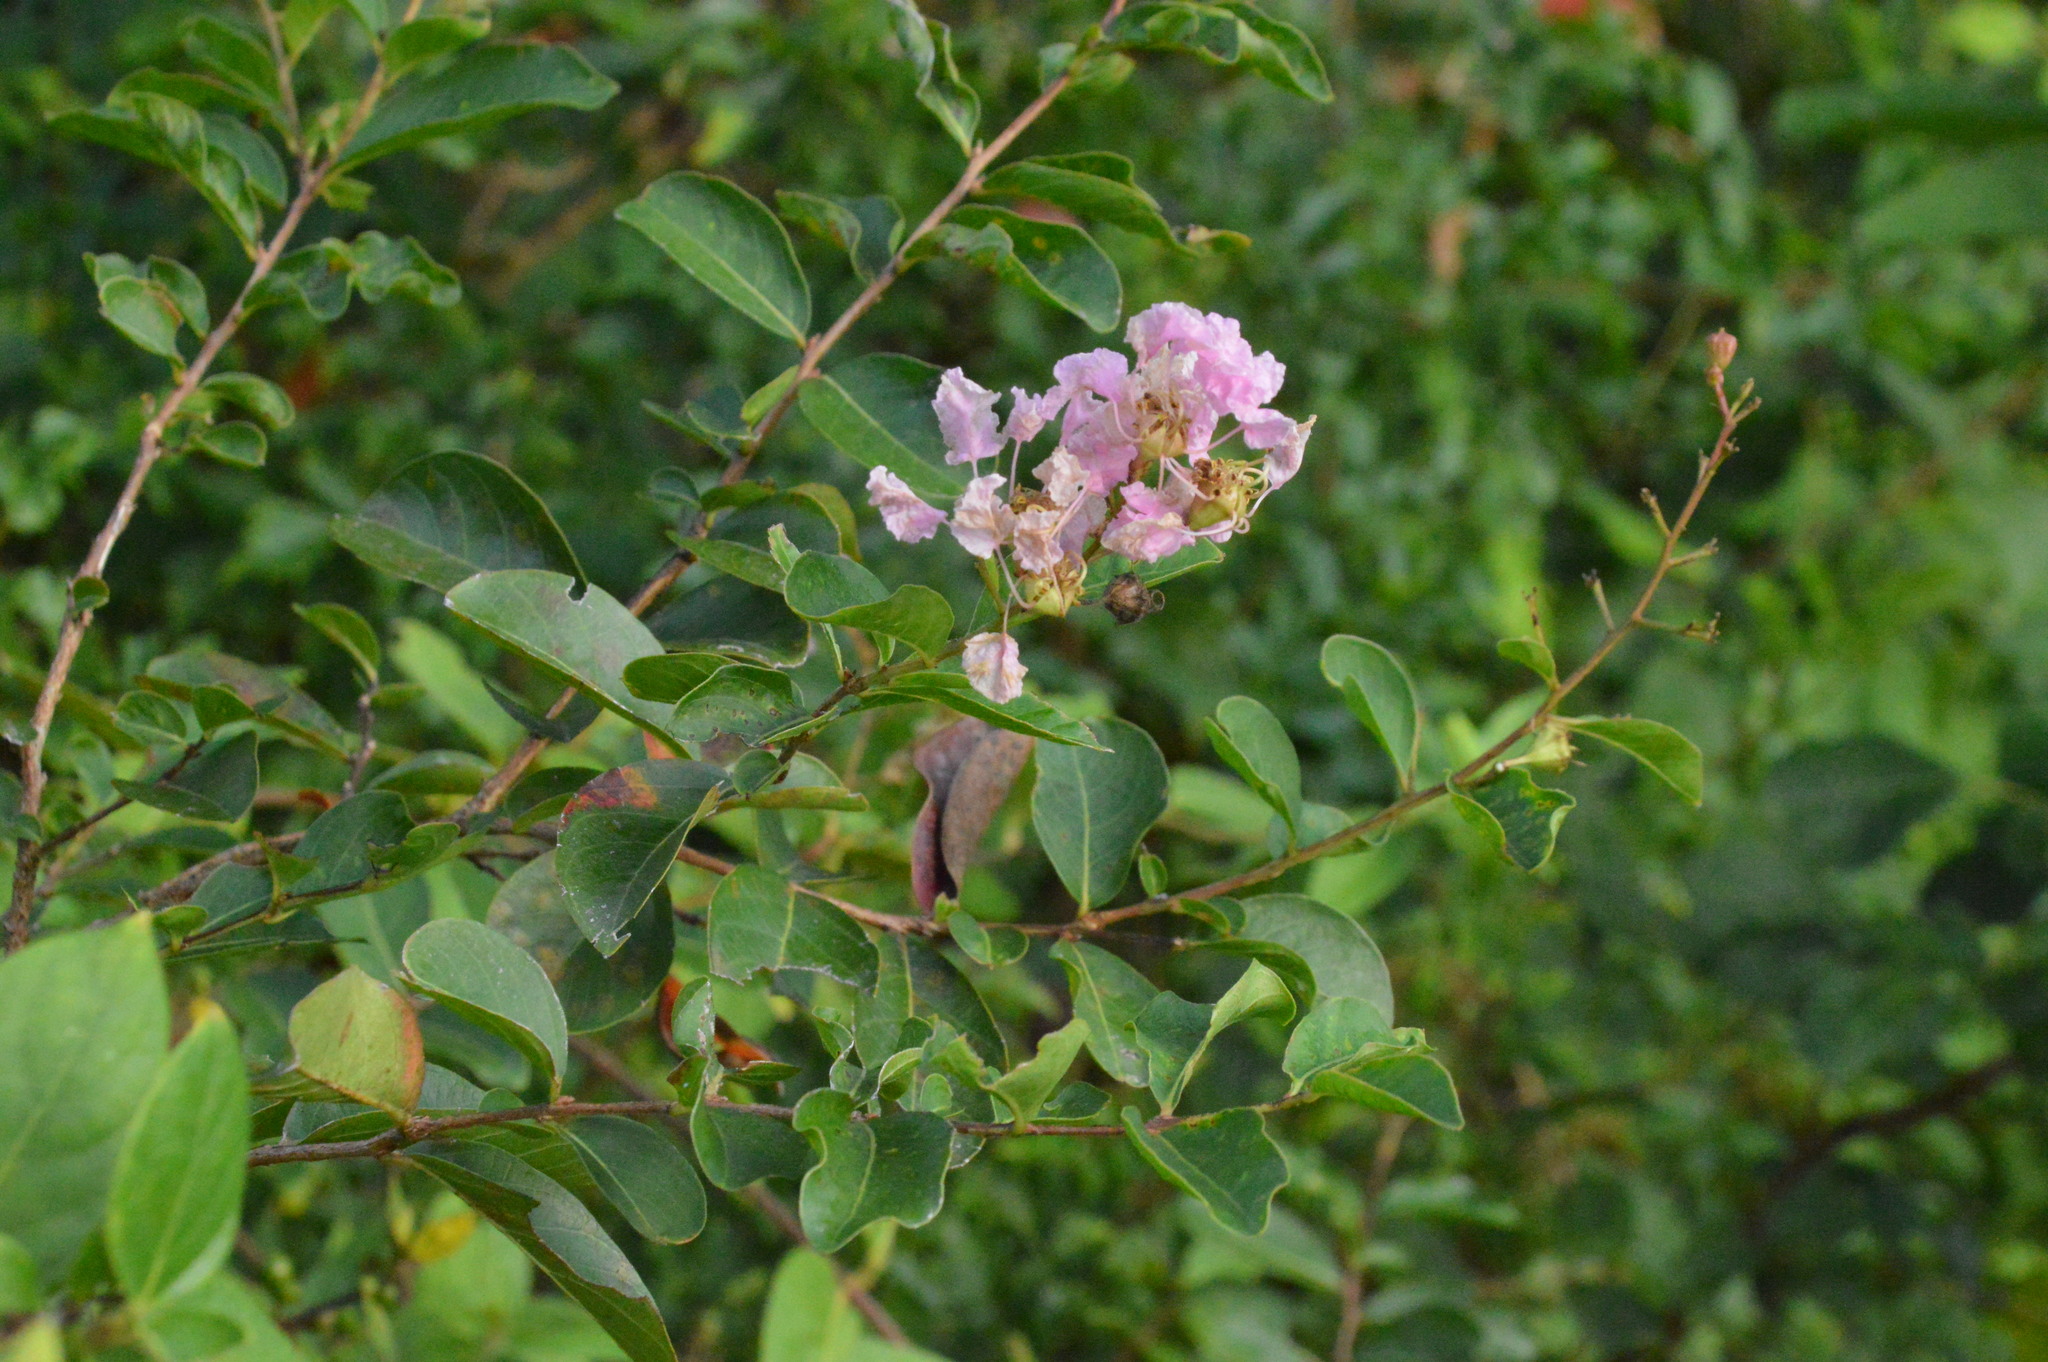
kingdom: Plantae
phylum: Tracheophyta
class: Magnoliopsida
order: Myrtales
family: Lythraceae
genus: Lagerstroemia
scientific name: Lagerstroemia indica
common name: Crape-myrtle
